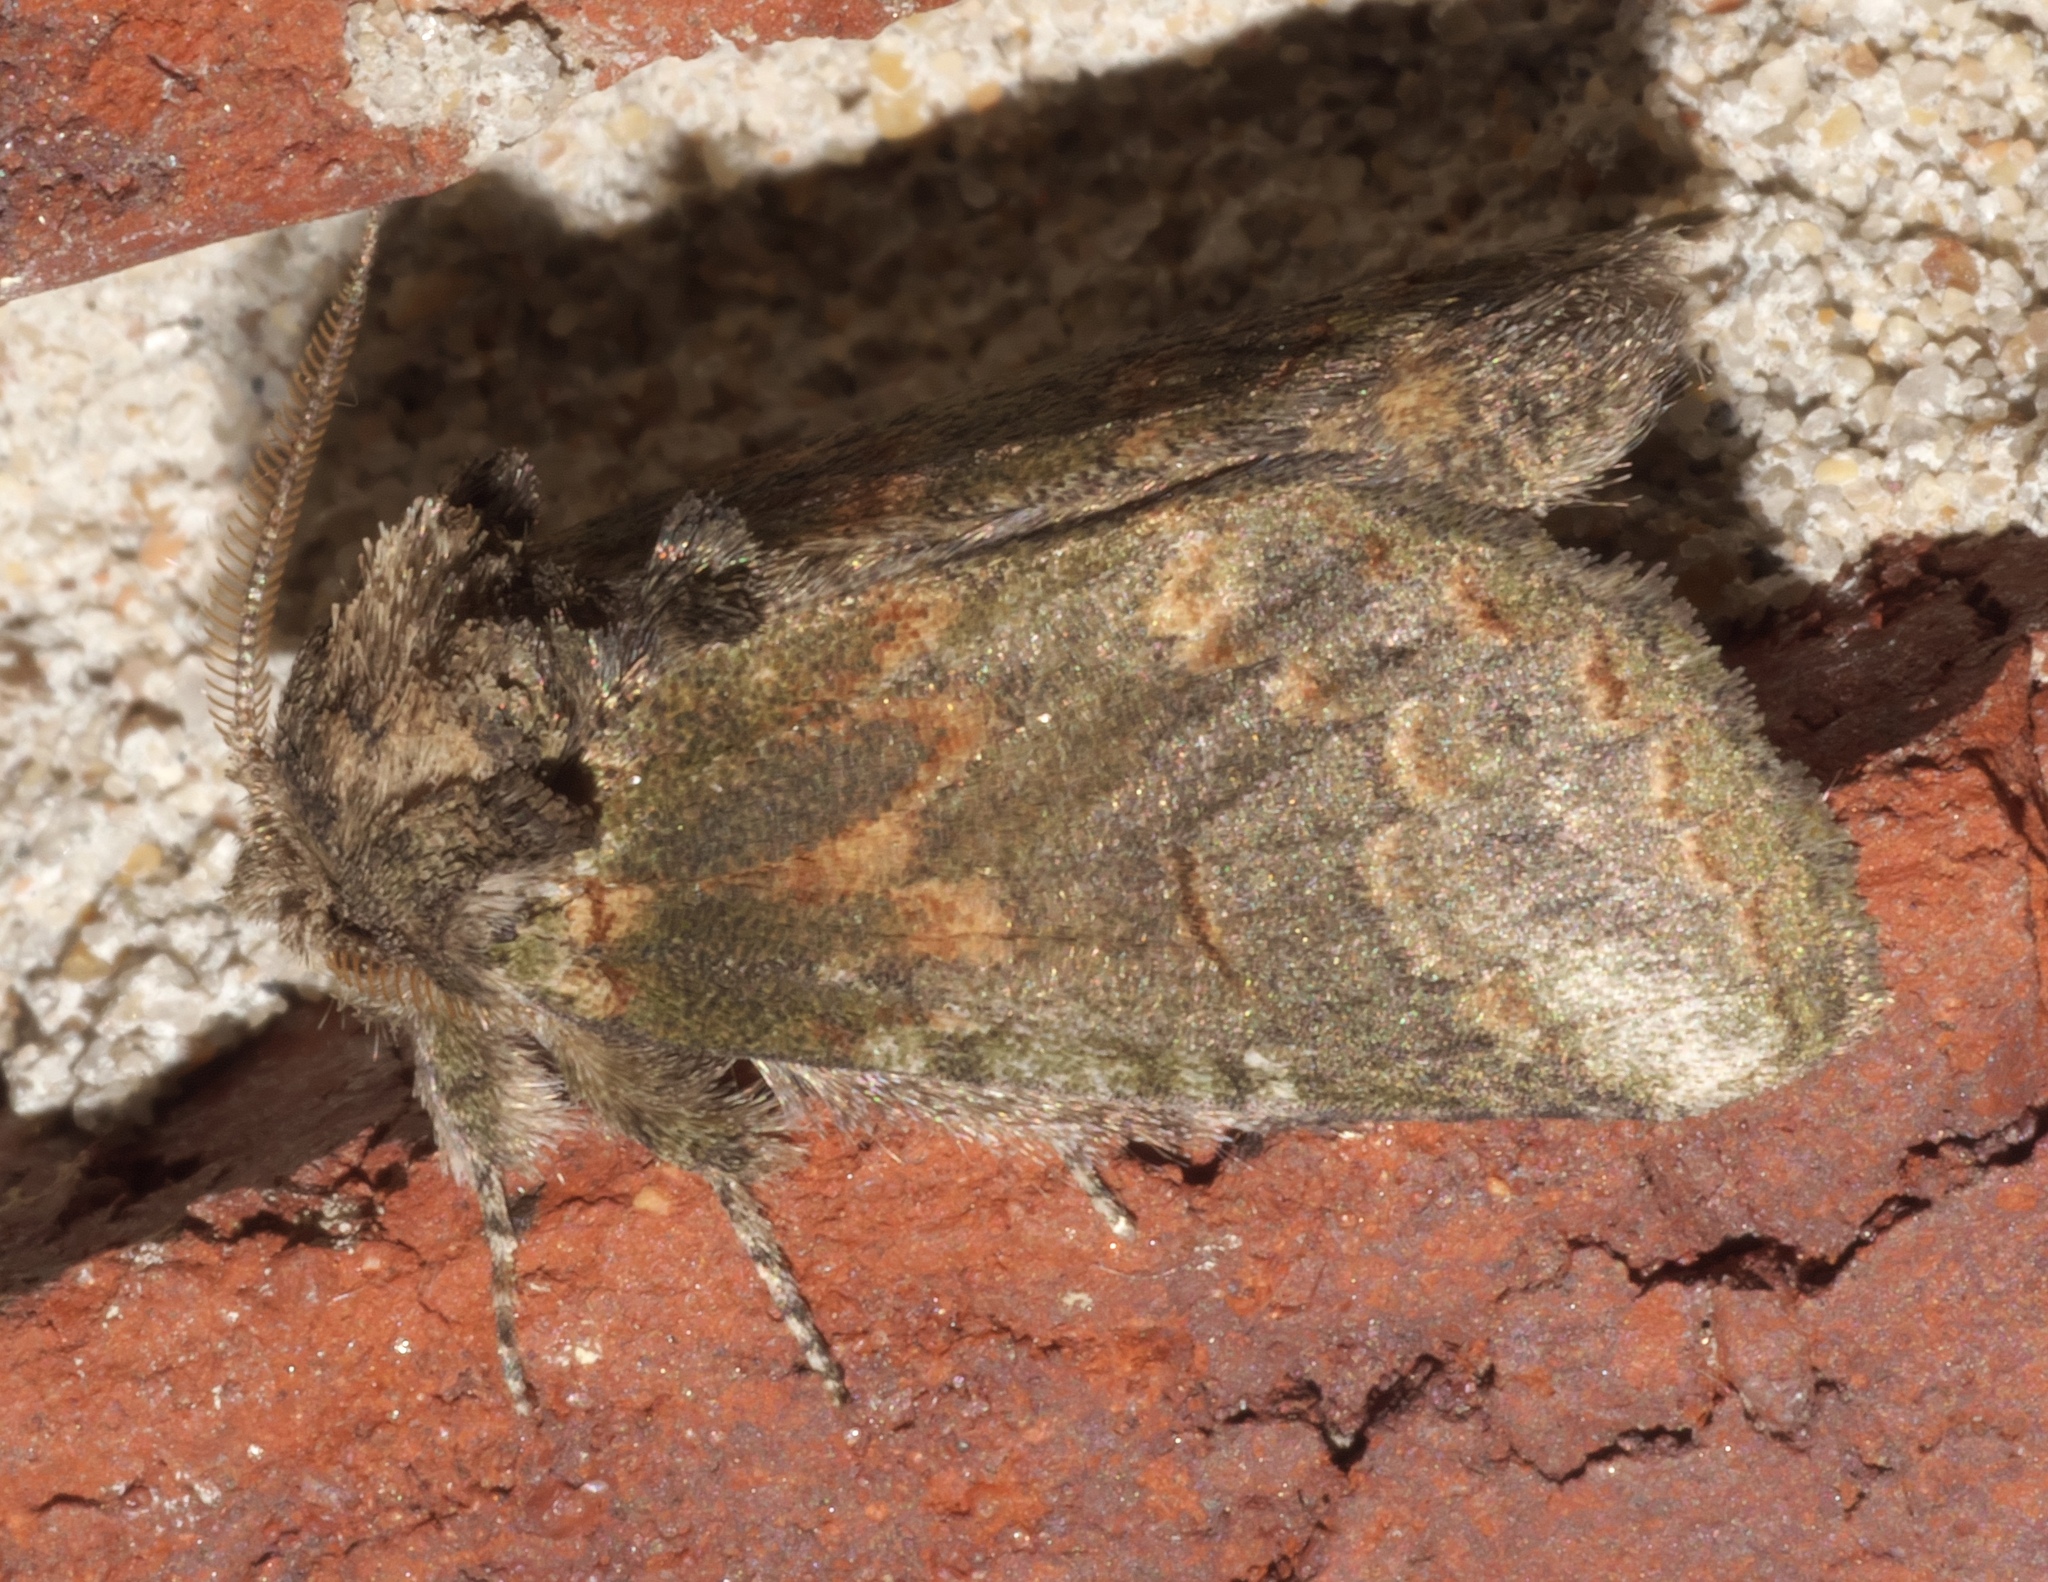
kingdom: Animalia
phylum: Arthropoda
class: Insecta
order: Lepidoptera
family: Notodontidae
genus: Rifargia
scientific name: Rifargia
